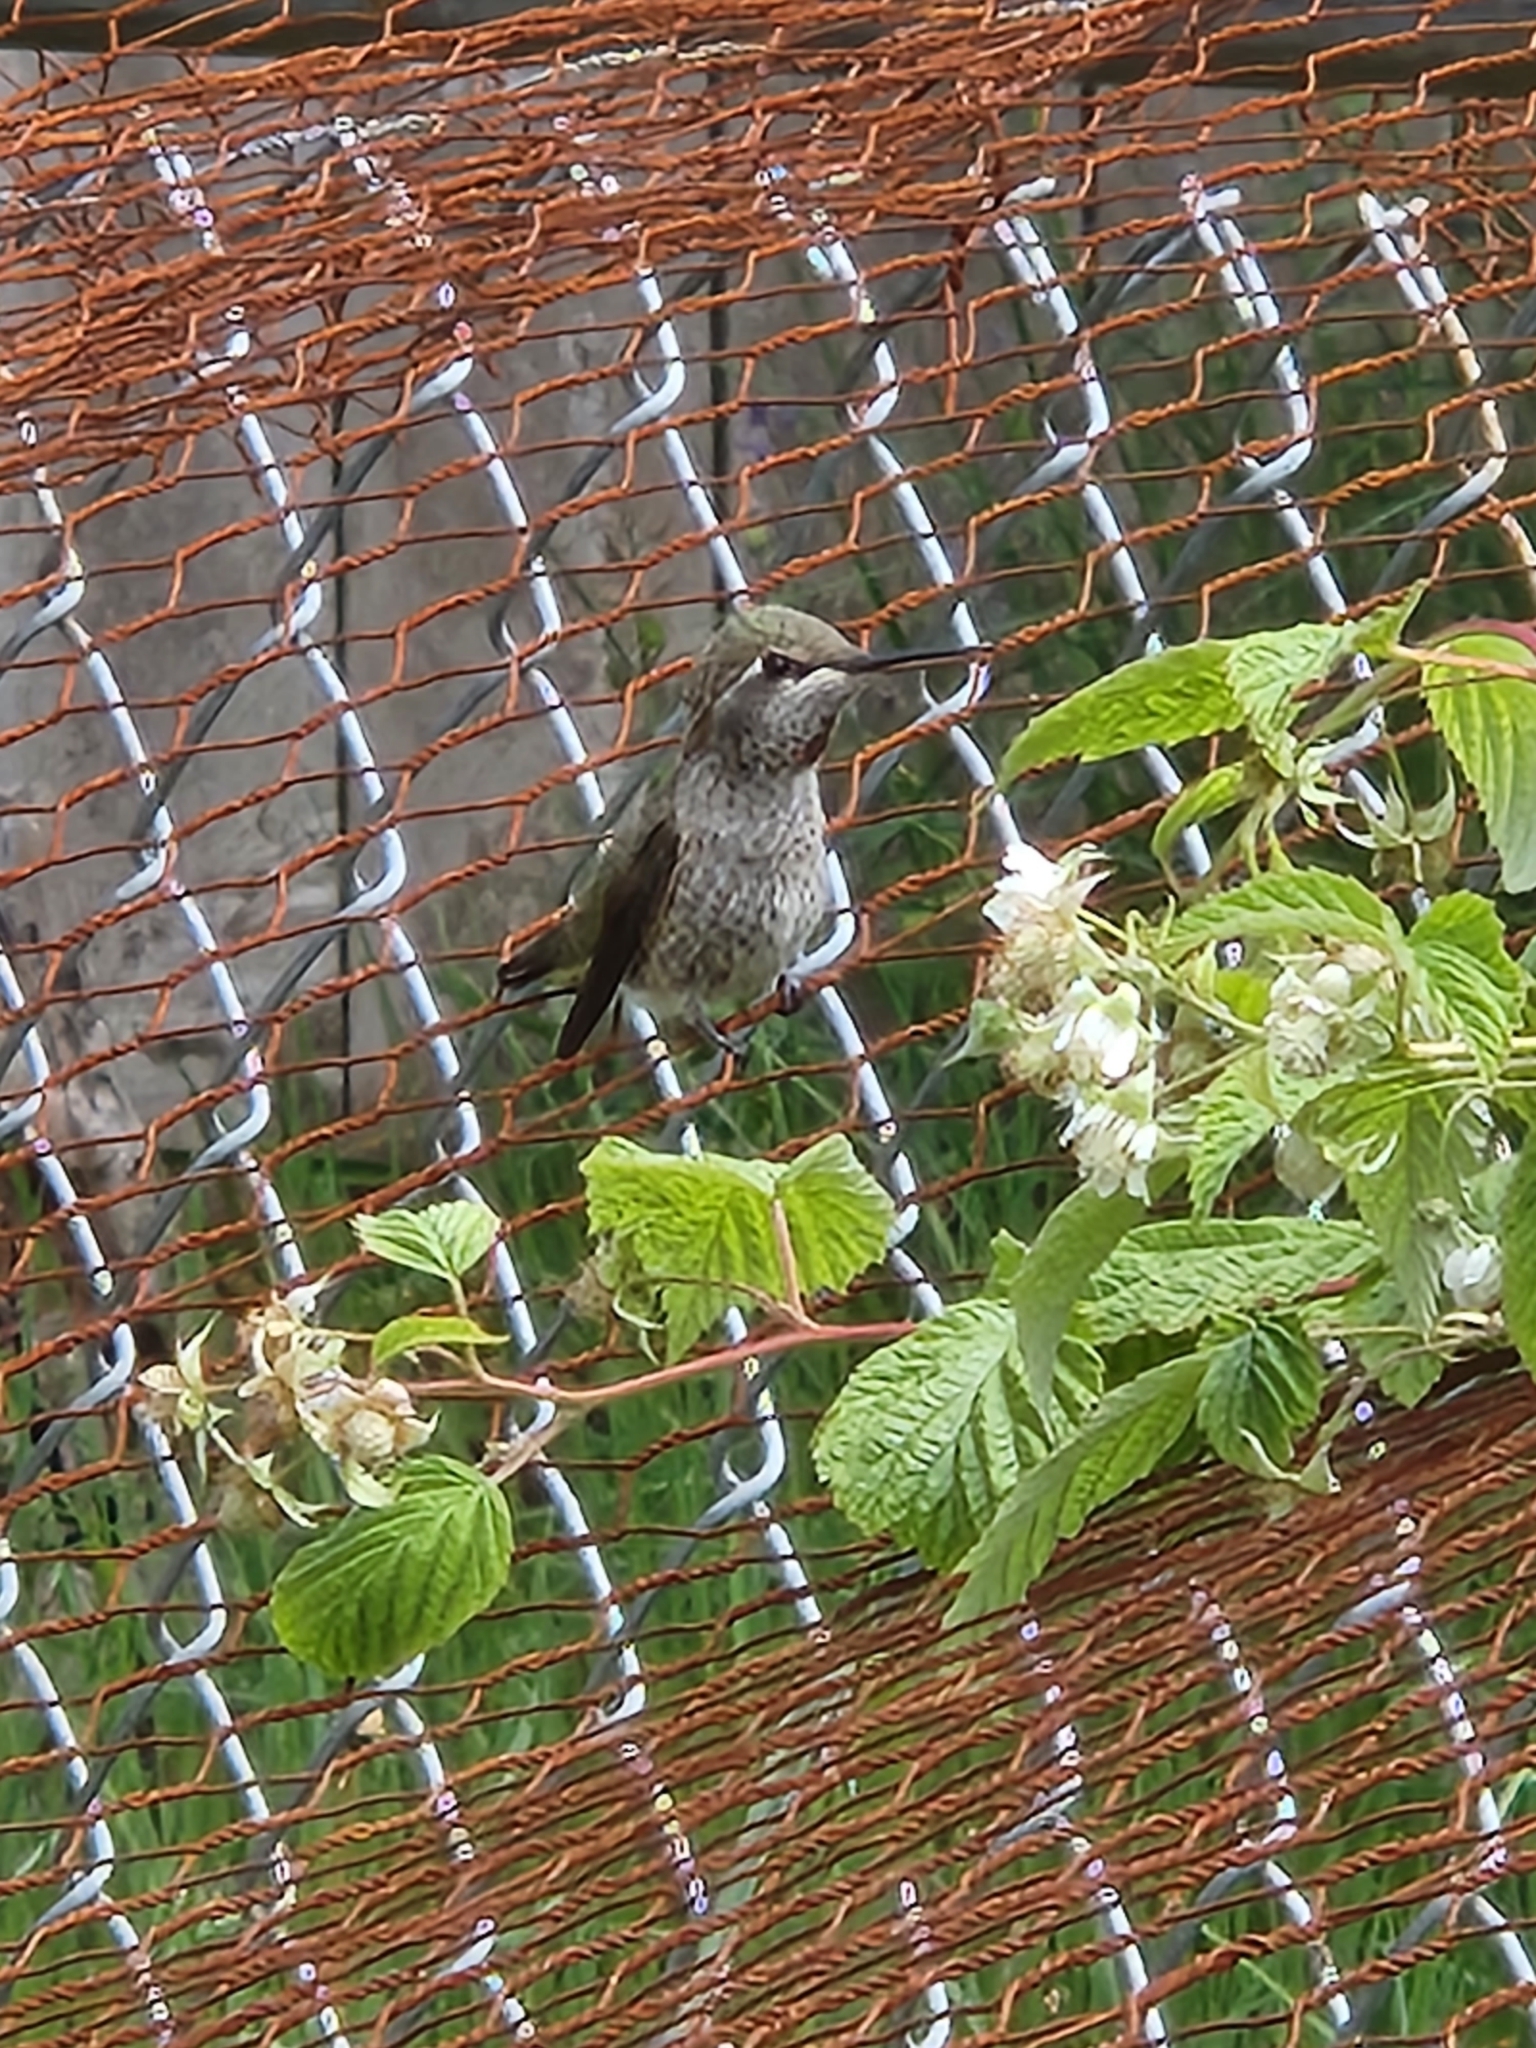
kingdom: Animalia
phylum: Chordata
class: Aves
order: Apodiformes
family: Trochilidae
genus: Calypte
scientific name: Calypte anna
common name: Anna's hummingbird
